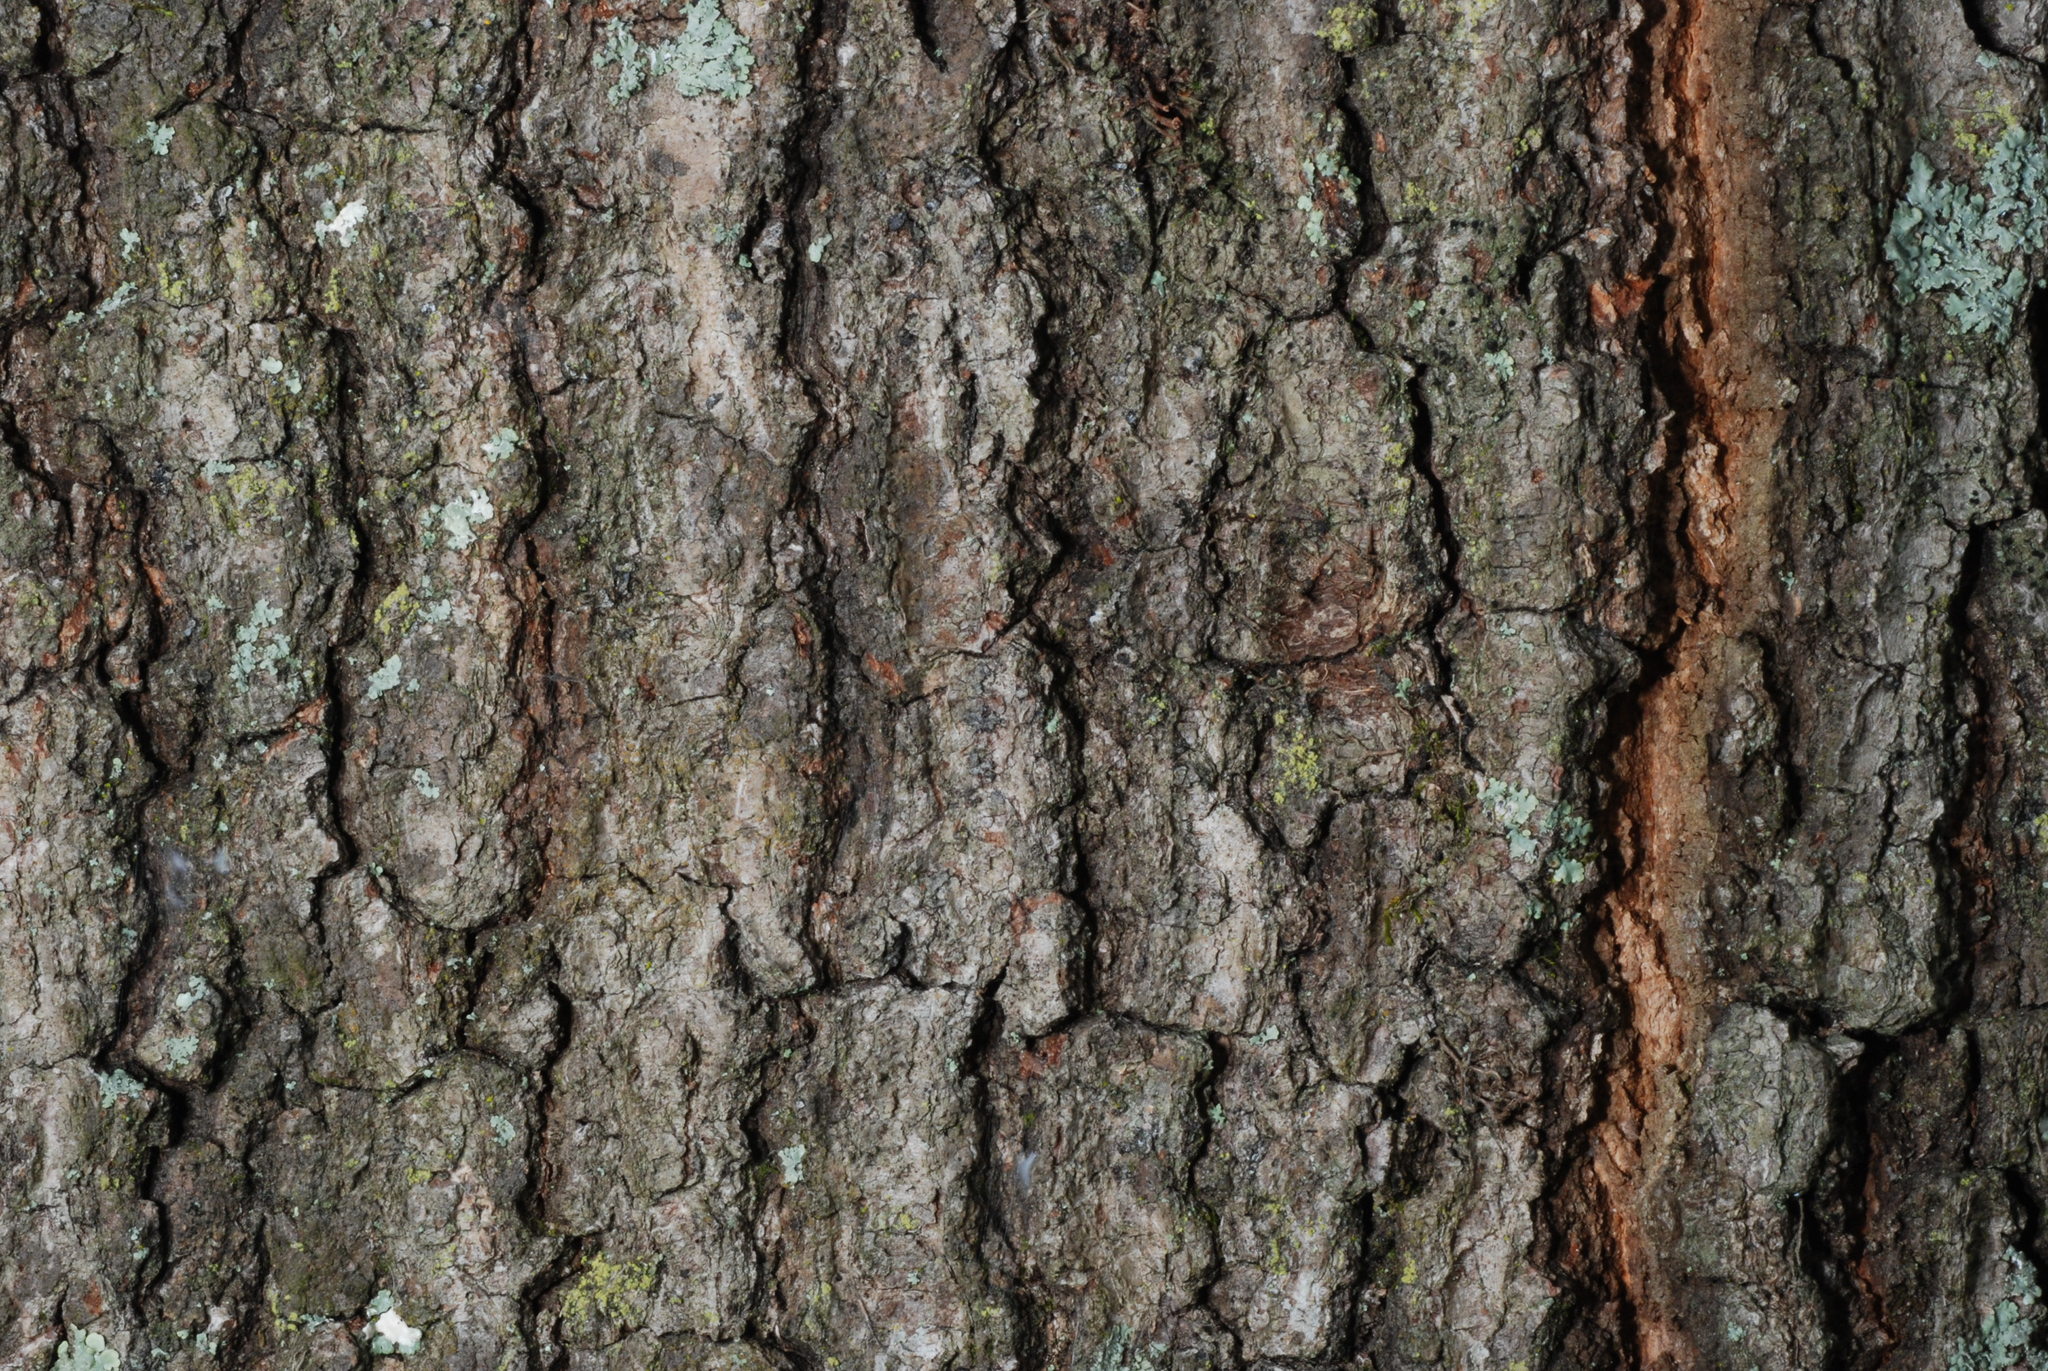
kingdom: Plantae
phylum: Tracheophyta
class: Magnoliopsida
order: Fagales
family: Fagaceae
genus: Quercus
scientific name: Quercus laurifolia
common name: Swamp laurel oak
